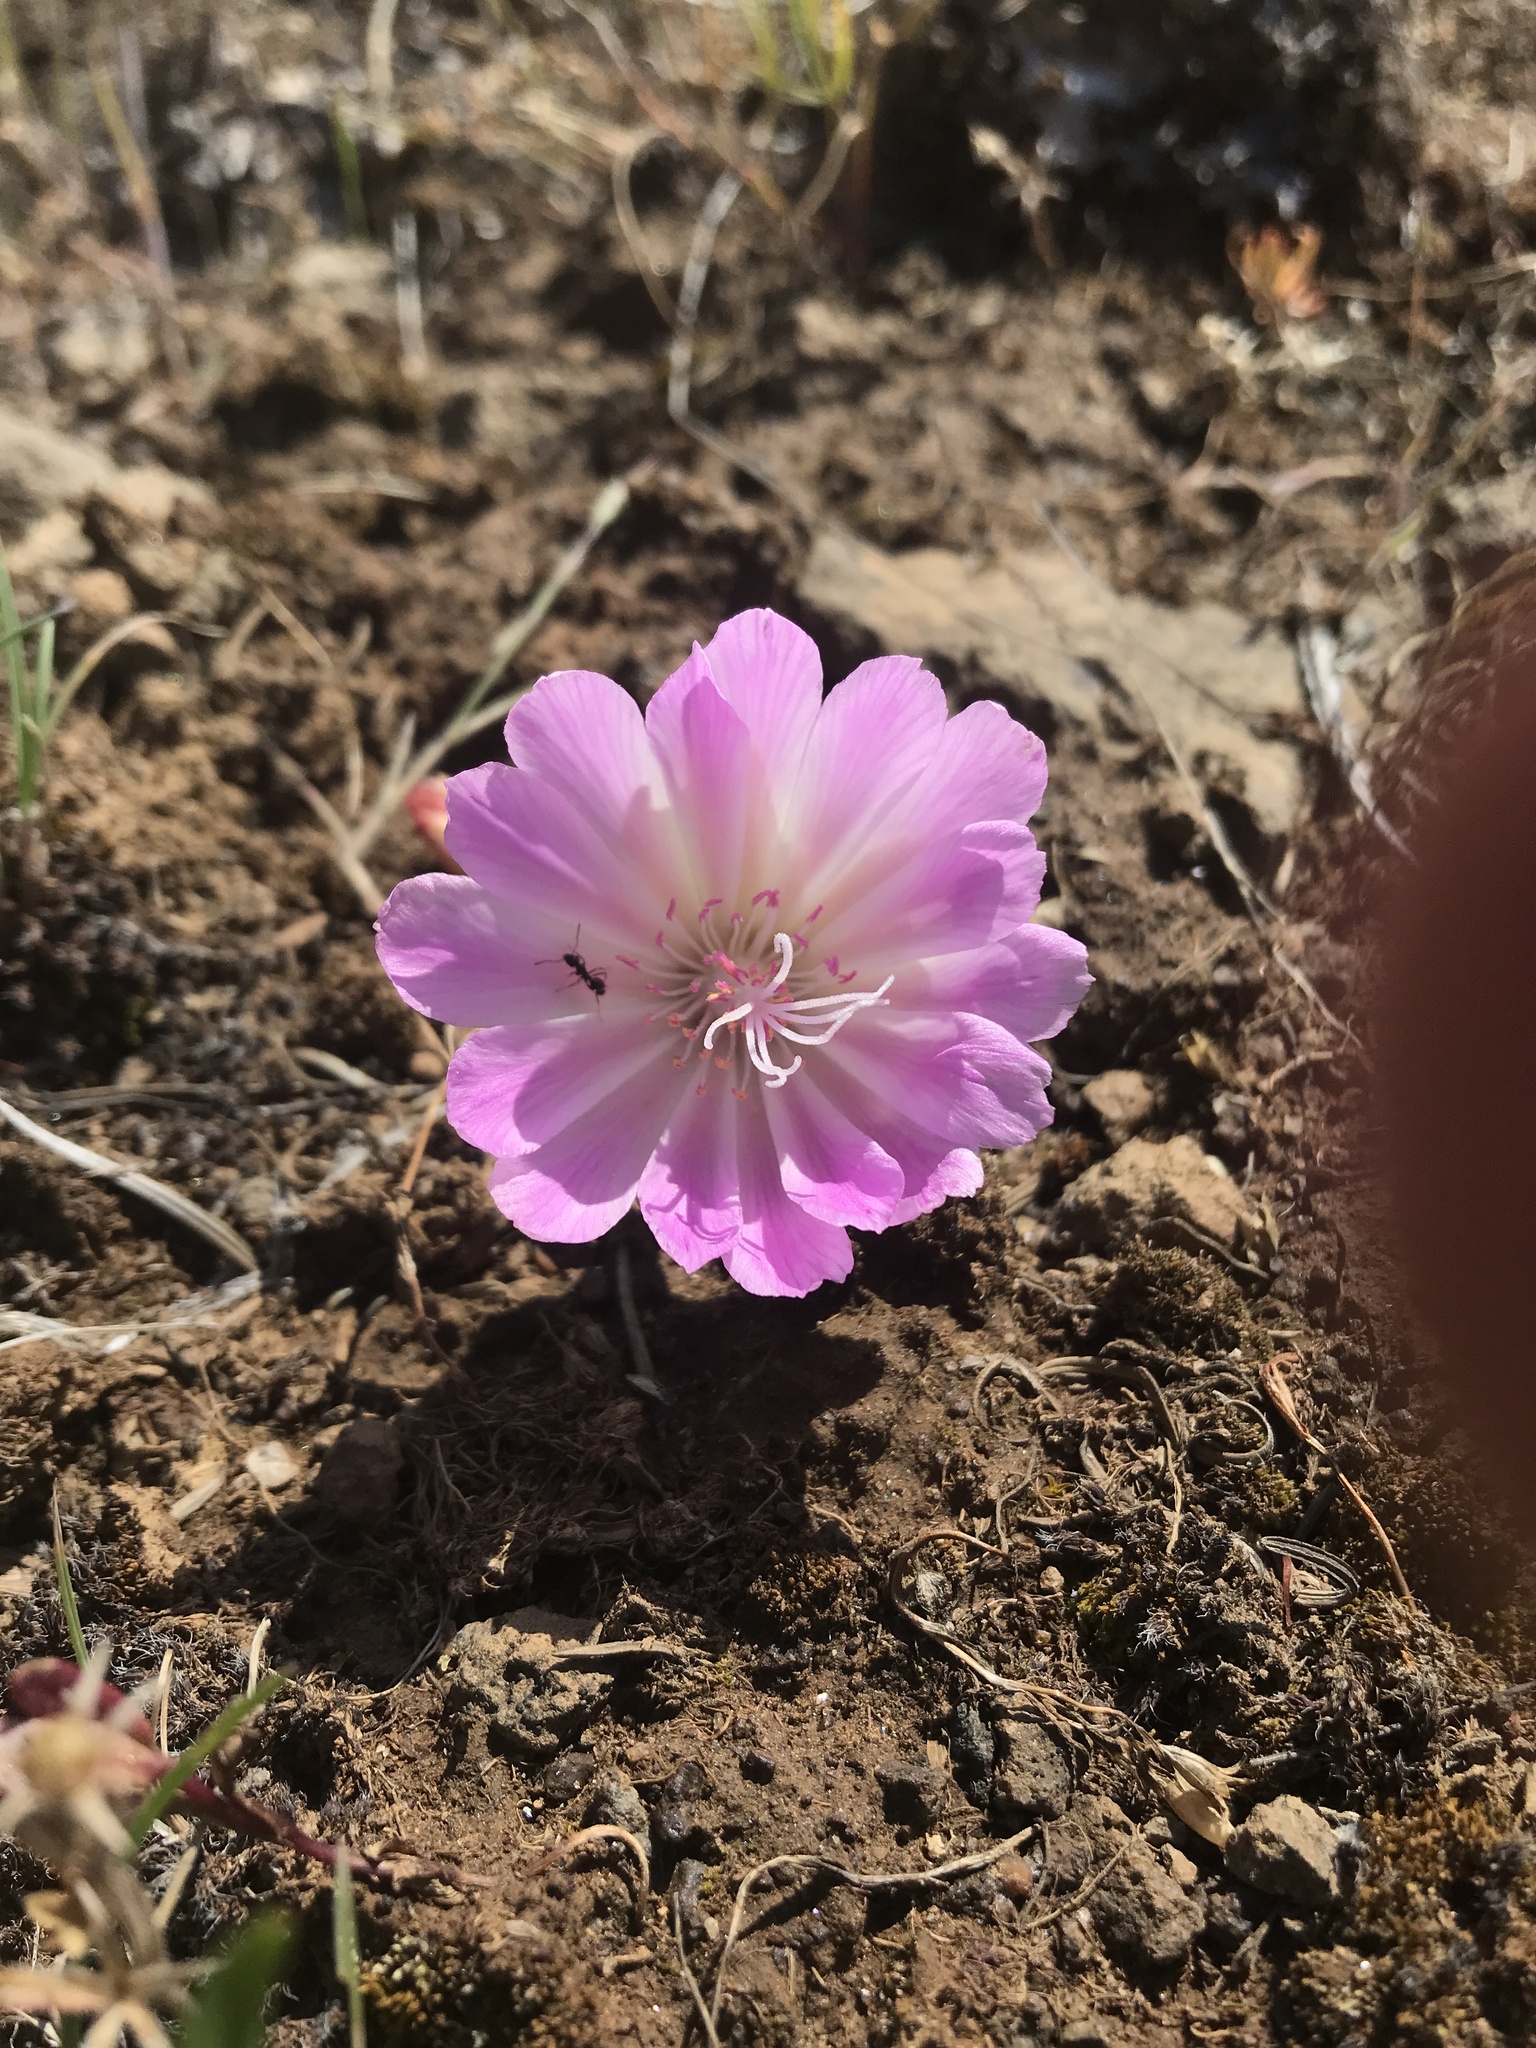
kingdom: Plantae
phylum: Tracheophyta
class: Magnoliopsida
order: Caryophyllales
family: Montiaceae
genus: Lewisia
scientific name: Lewisia rediviva
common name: Bitter-root
